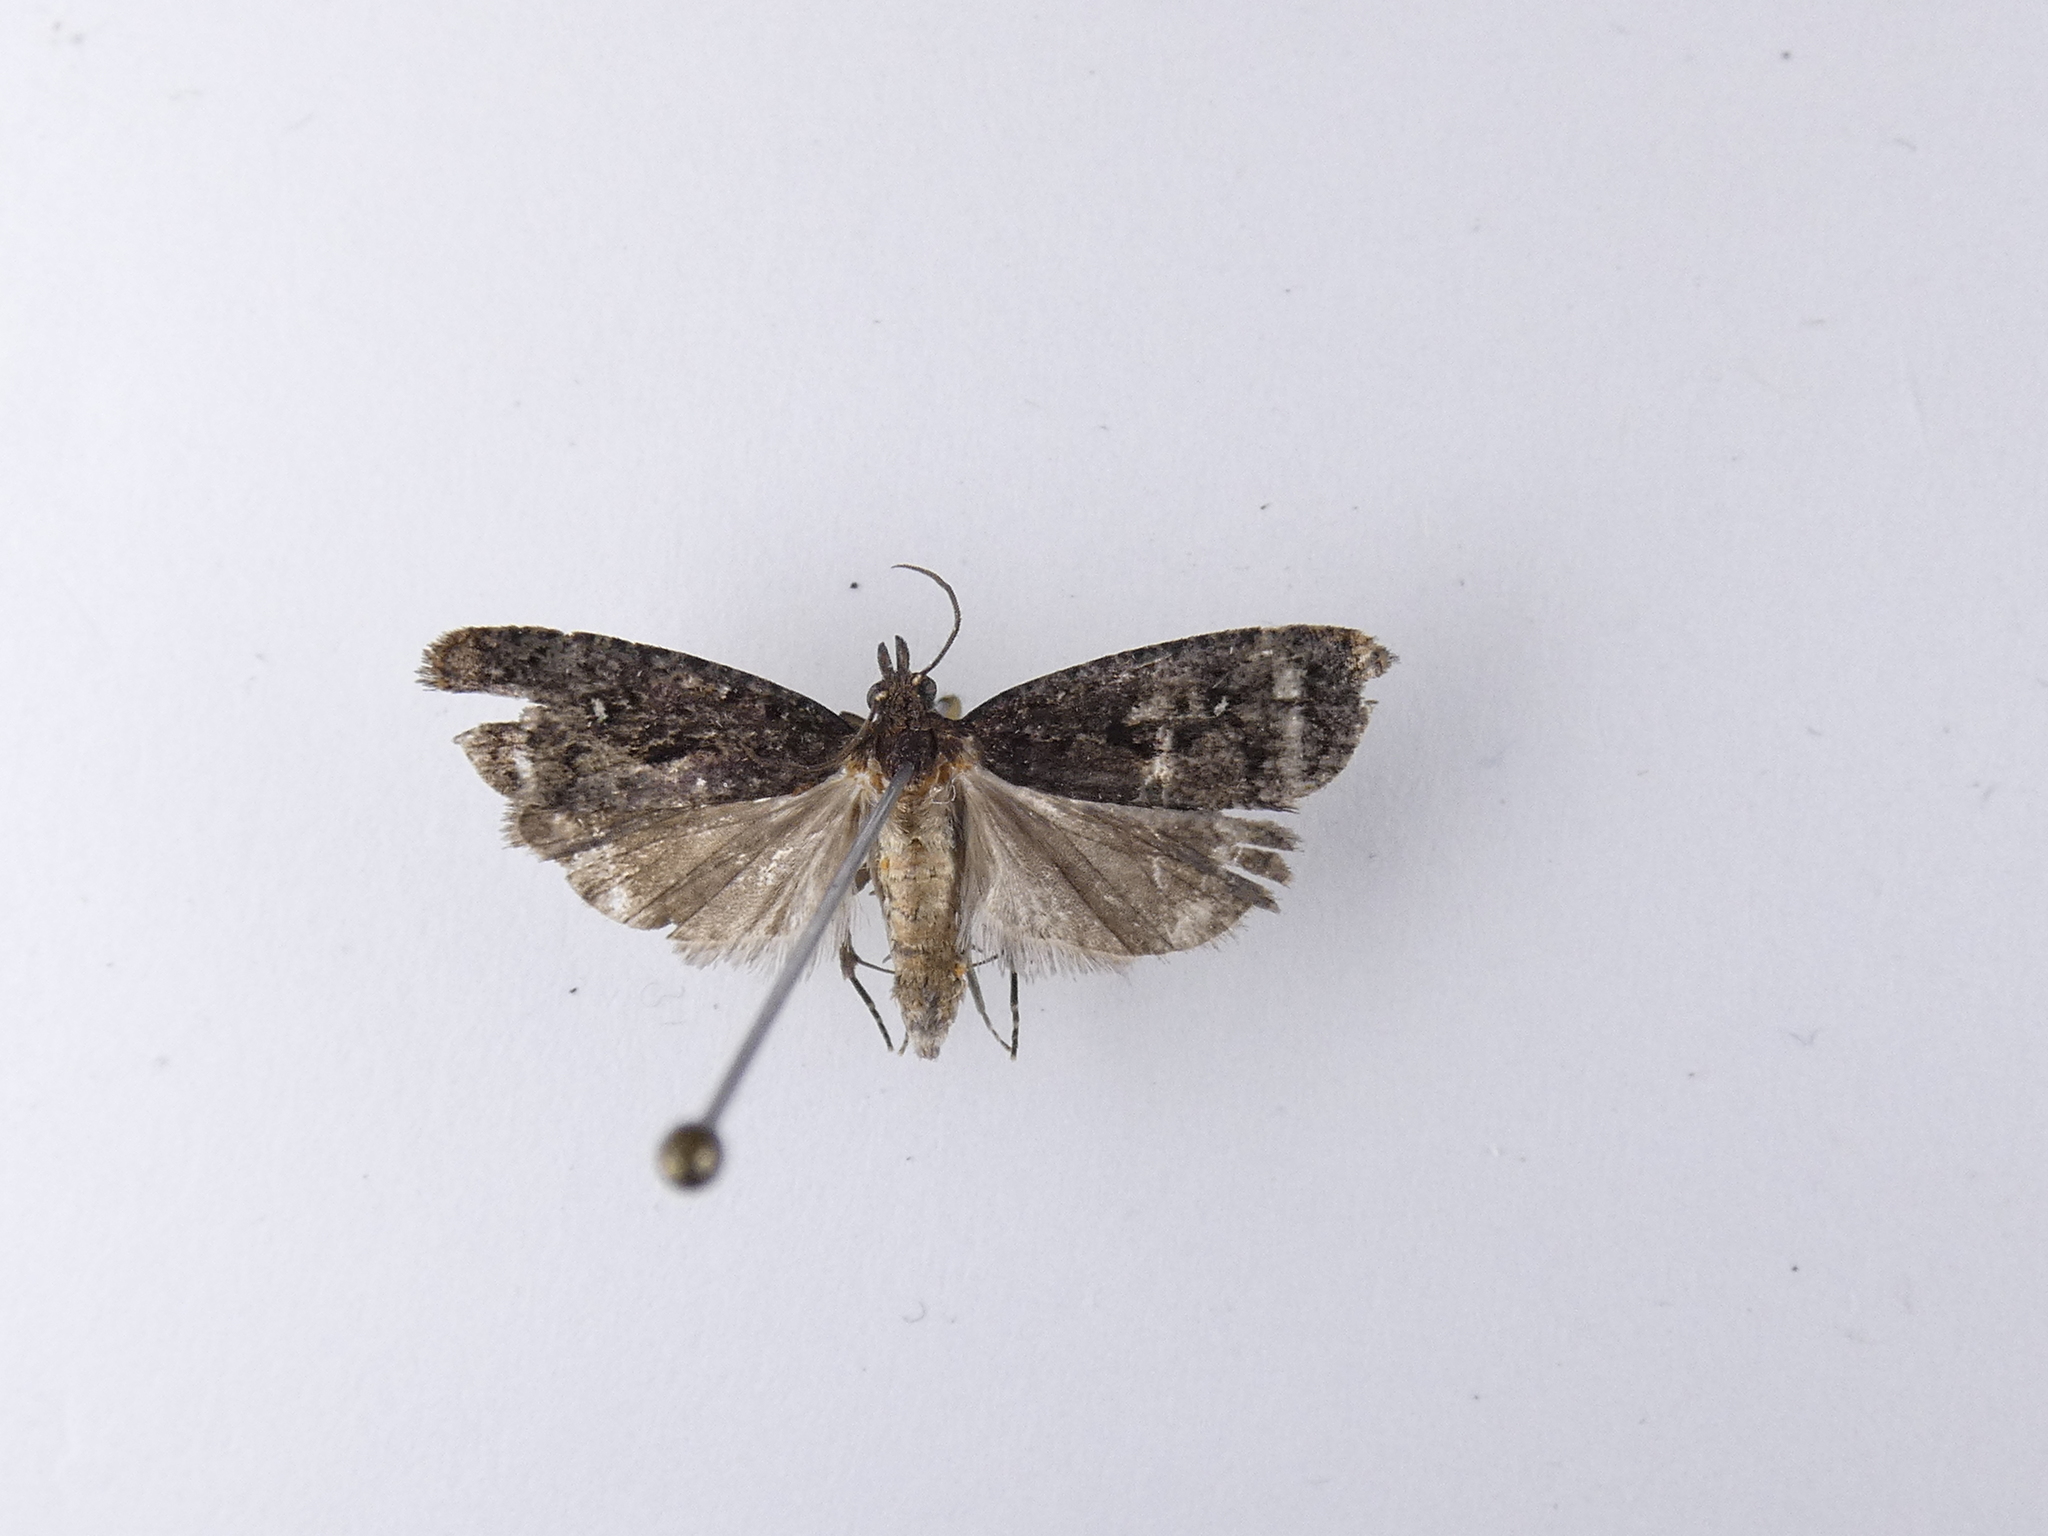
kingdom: Animalia
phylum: Arthropoda
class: Insecta
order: Lepidoptera
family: Tortricidae
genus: Cryptaspasma
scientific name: Cryptaspasma querula
